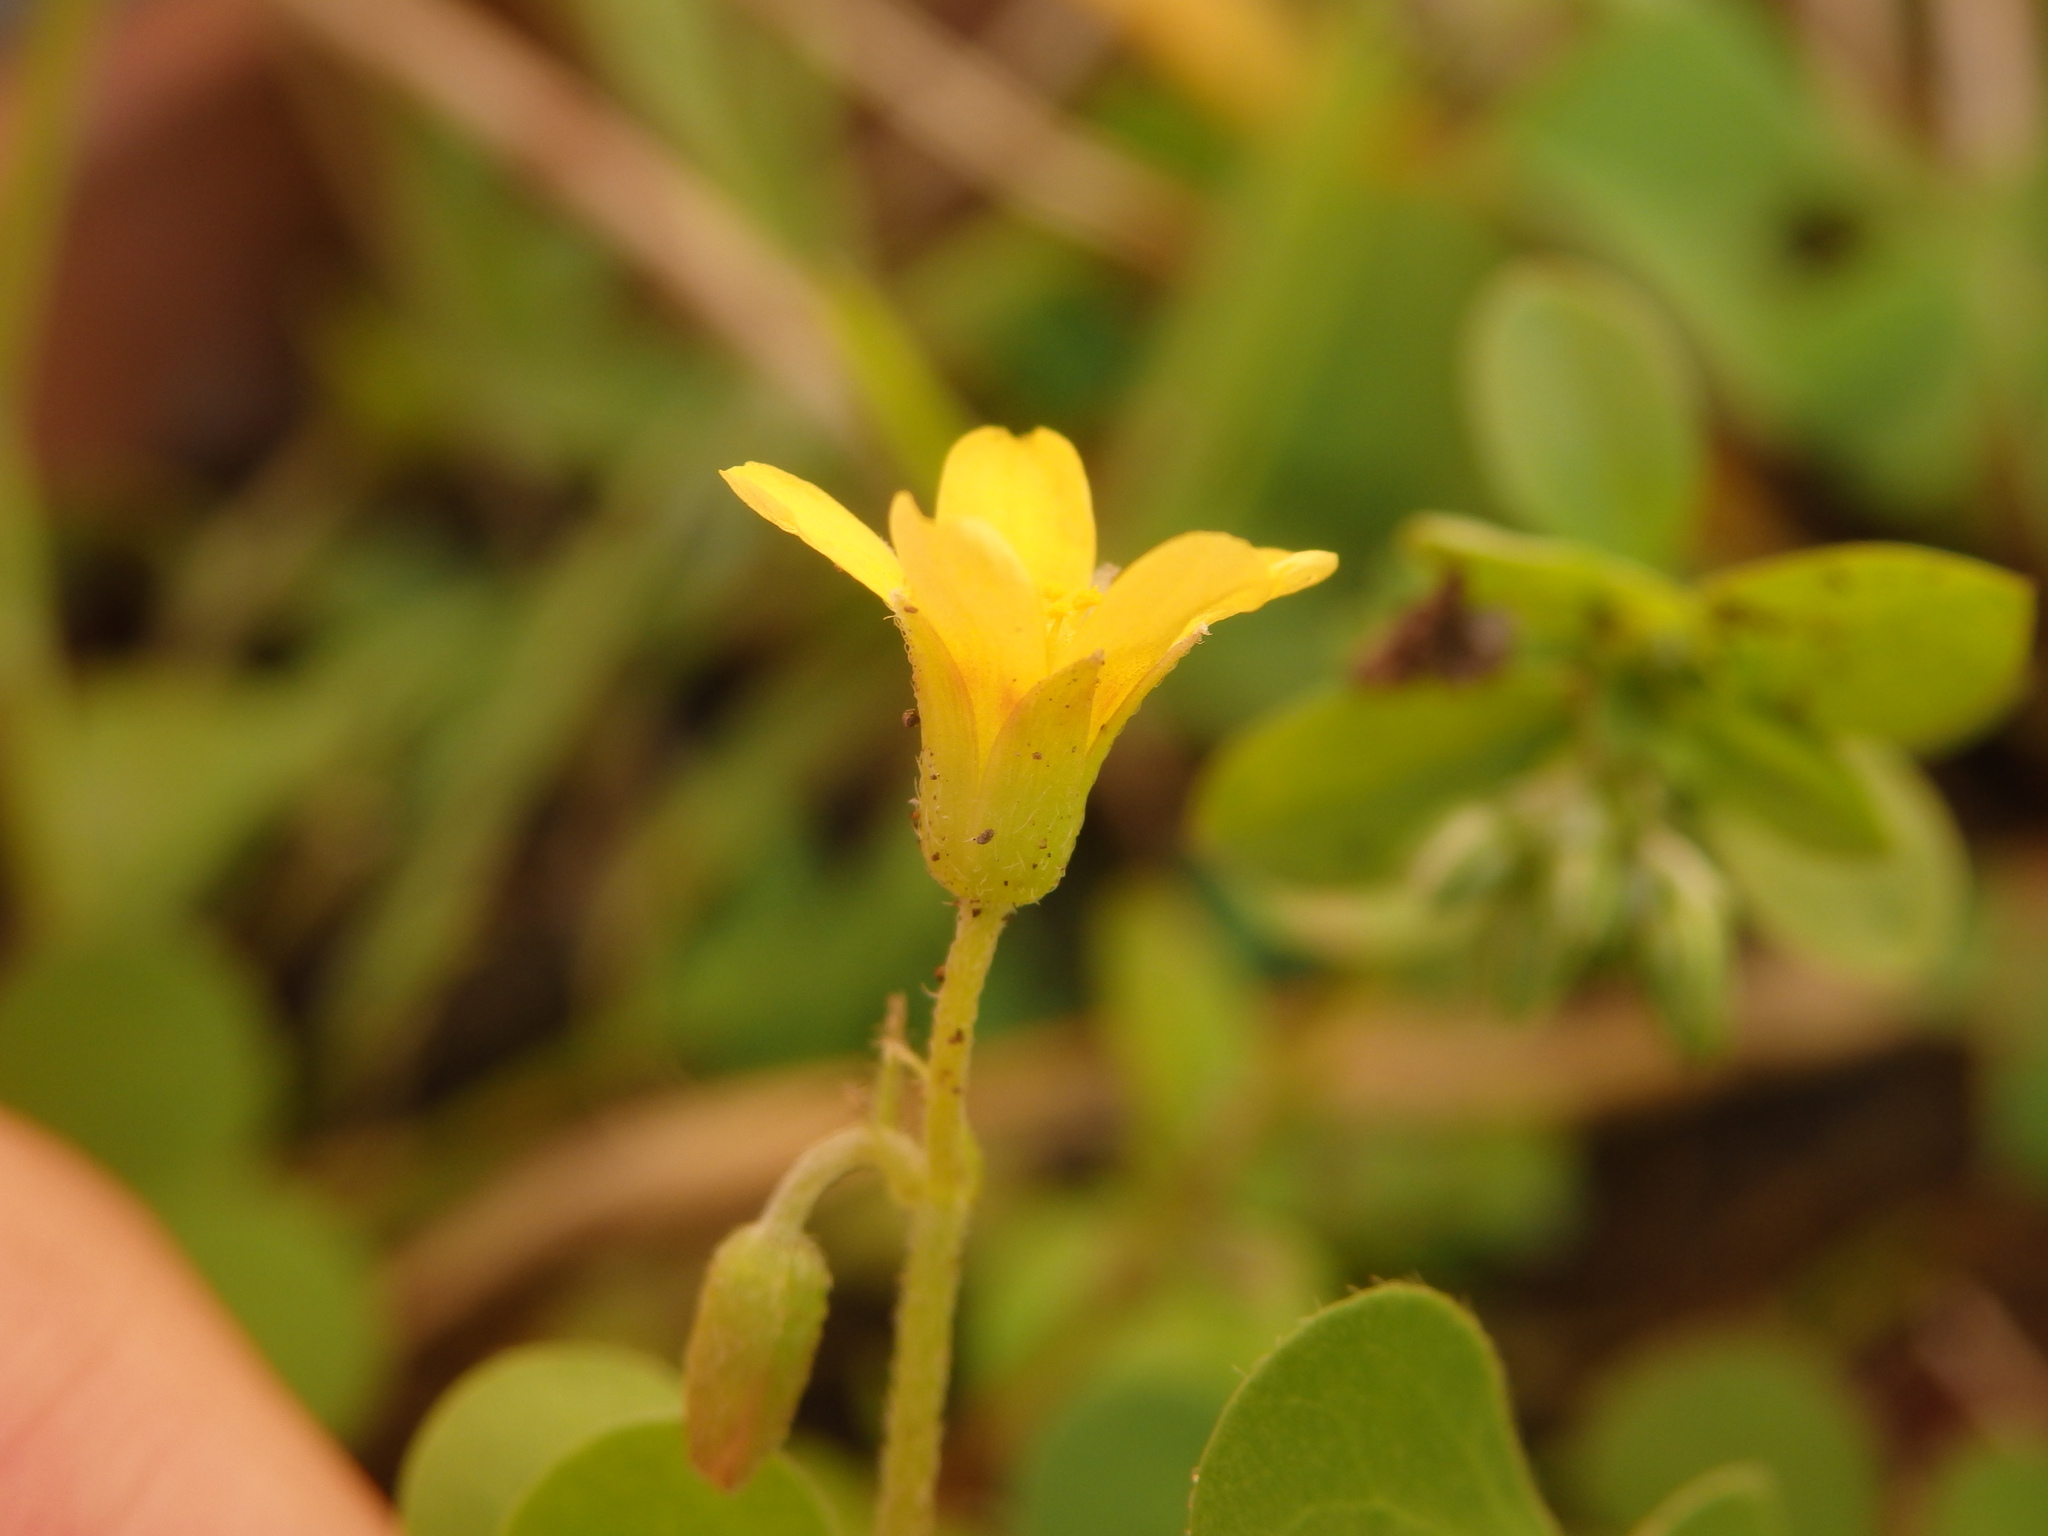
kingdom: Plantae
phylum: Tracheophyta
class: Magnoliopsida
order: Oxalidales
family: Oxalidaceae
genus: Oxalis
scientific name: Oxalis corniculata
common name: Procumbent yellow-sorrel
